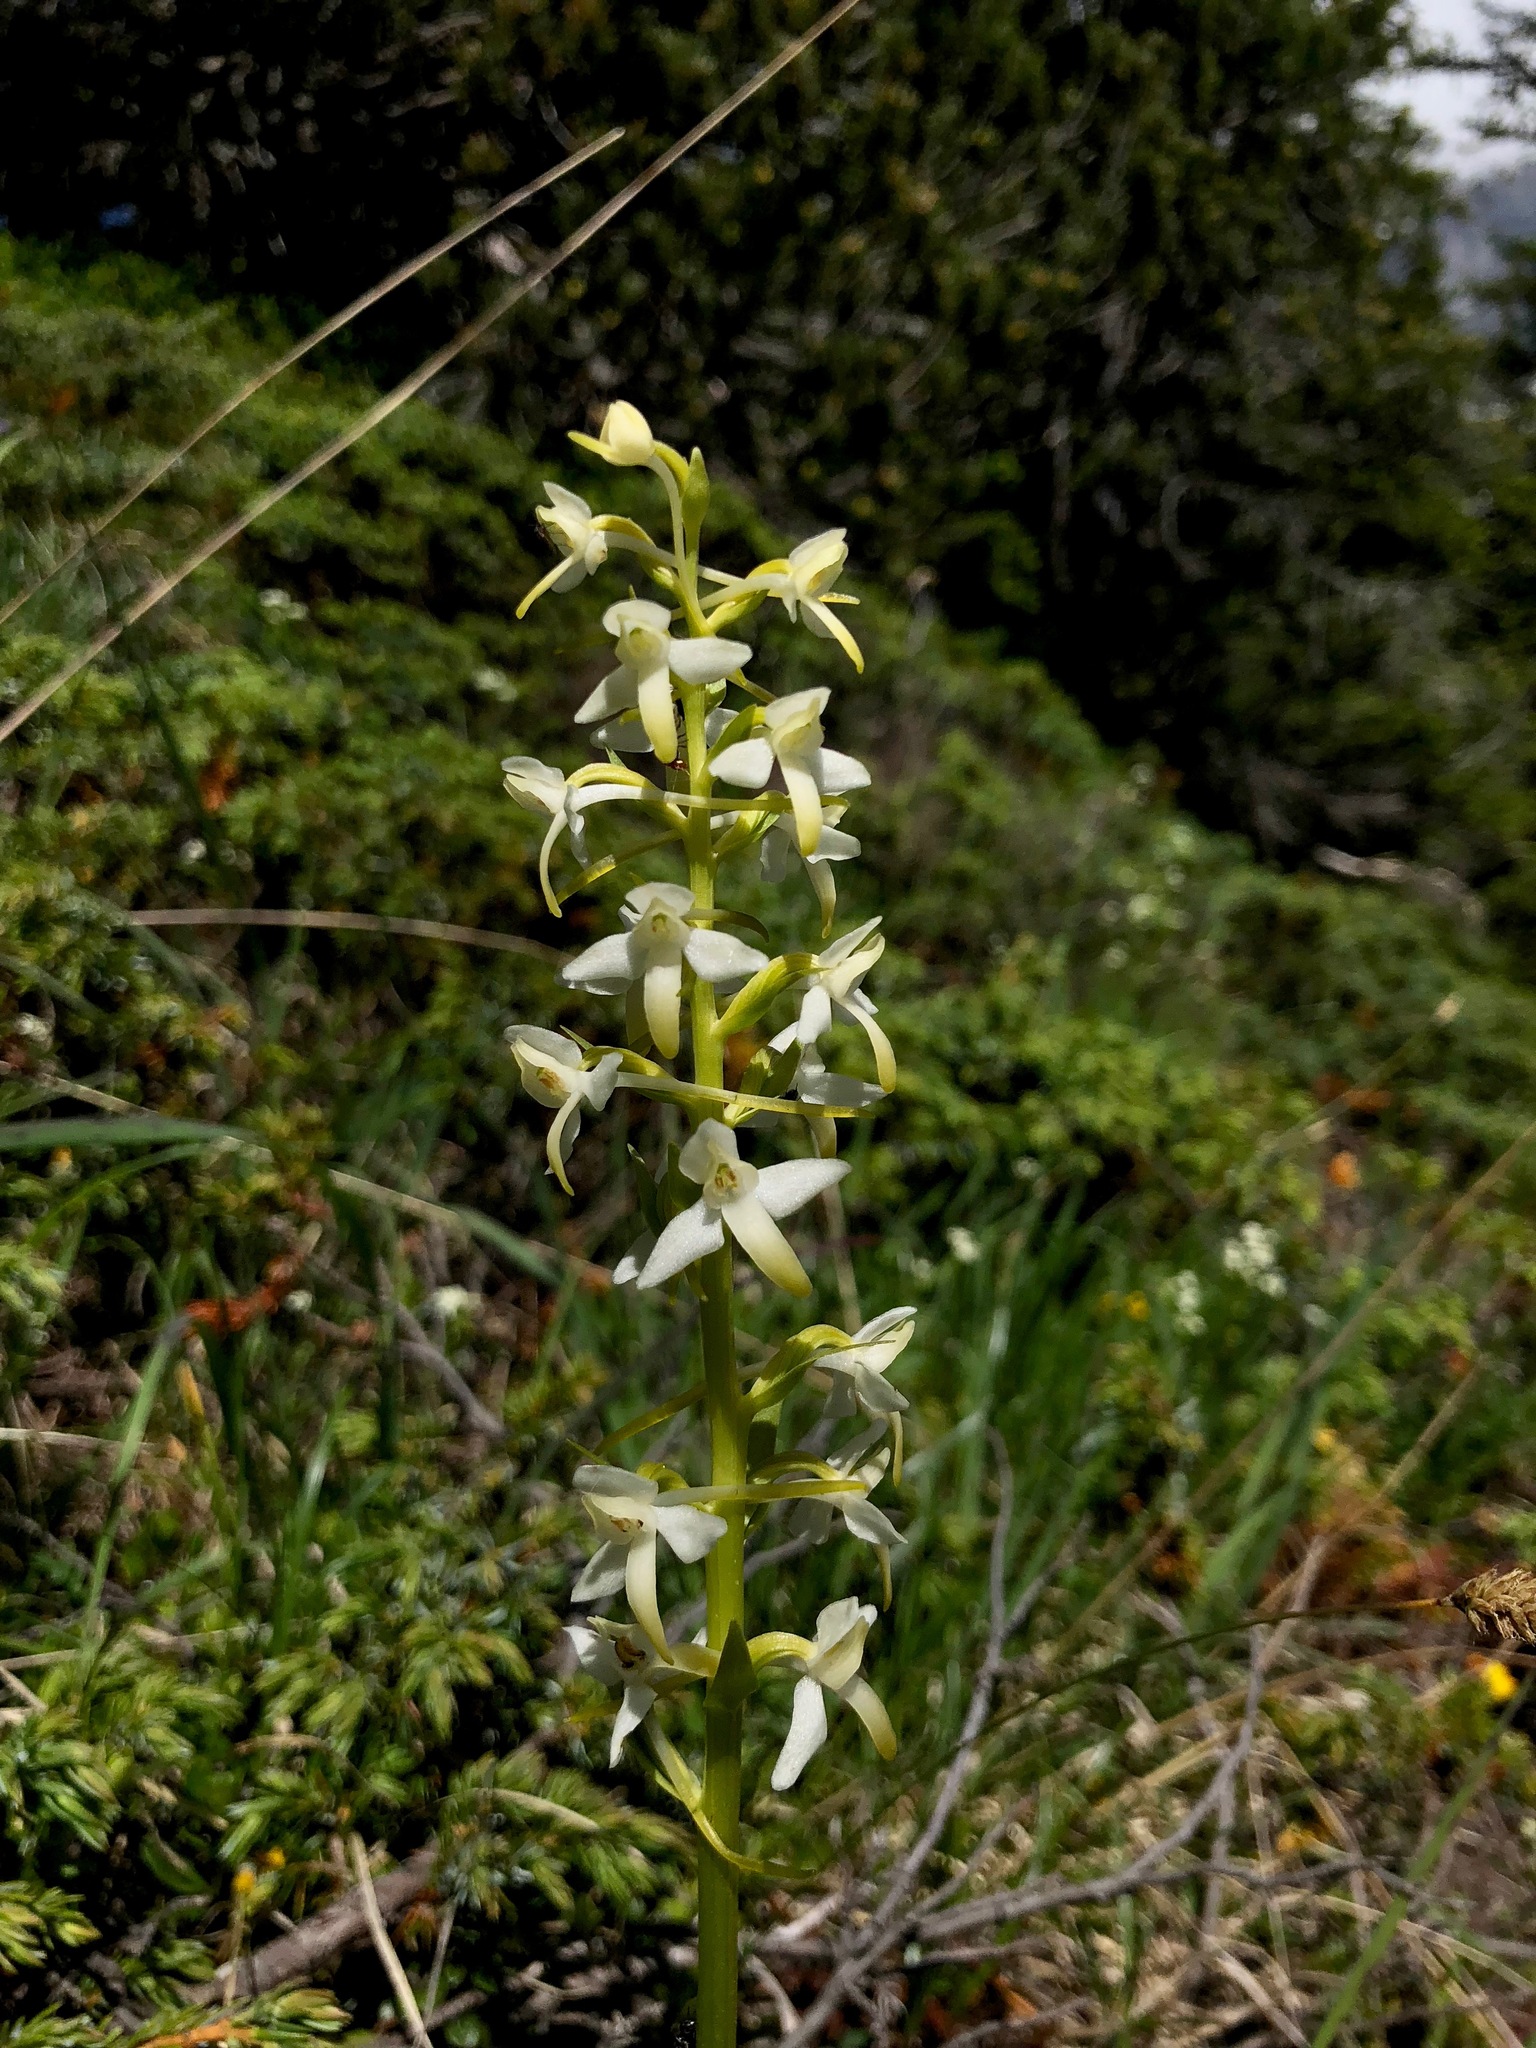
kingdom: Plantae
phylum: Tracheophyta
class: Liliopsida
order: Asparagales
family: Orchidaceae
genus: Platanthera
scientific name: Platanthera bifolia
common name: Lesser butterfly-orchid
